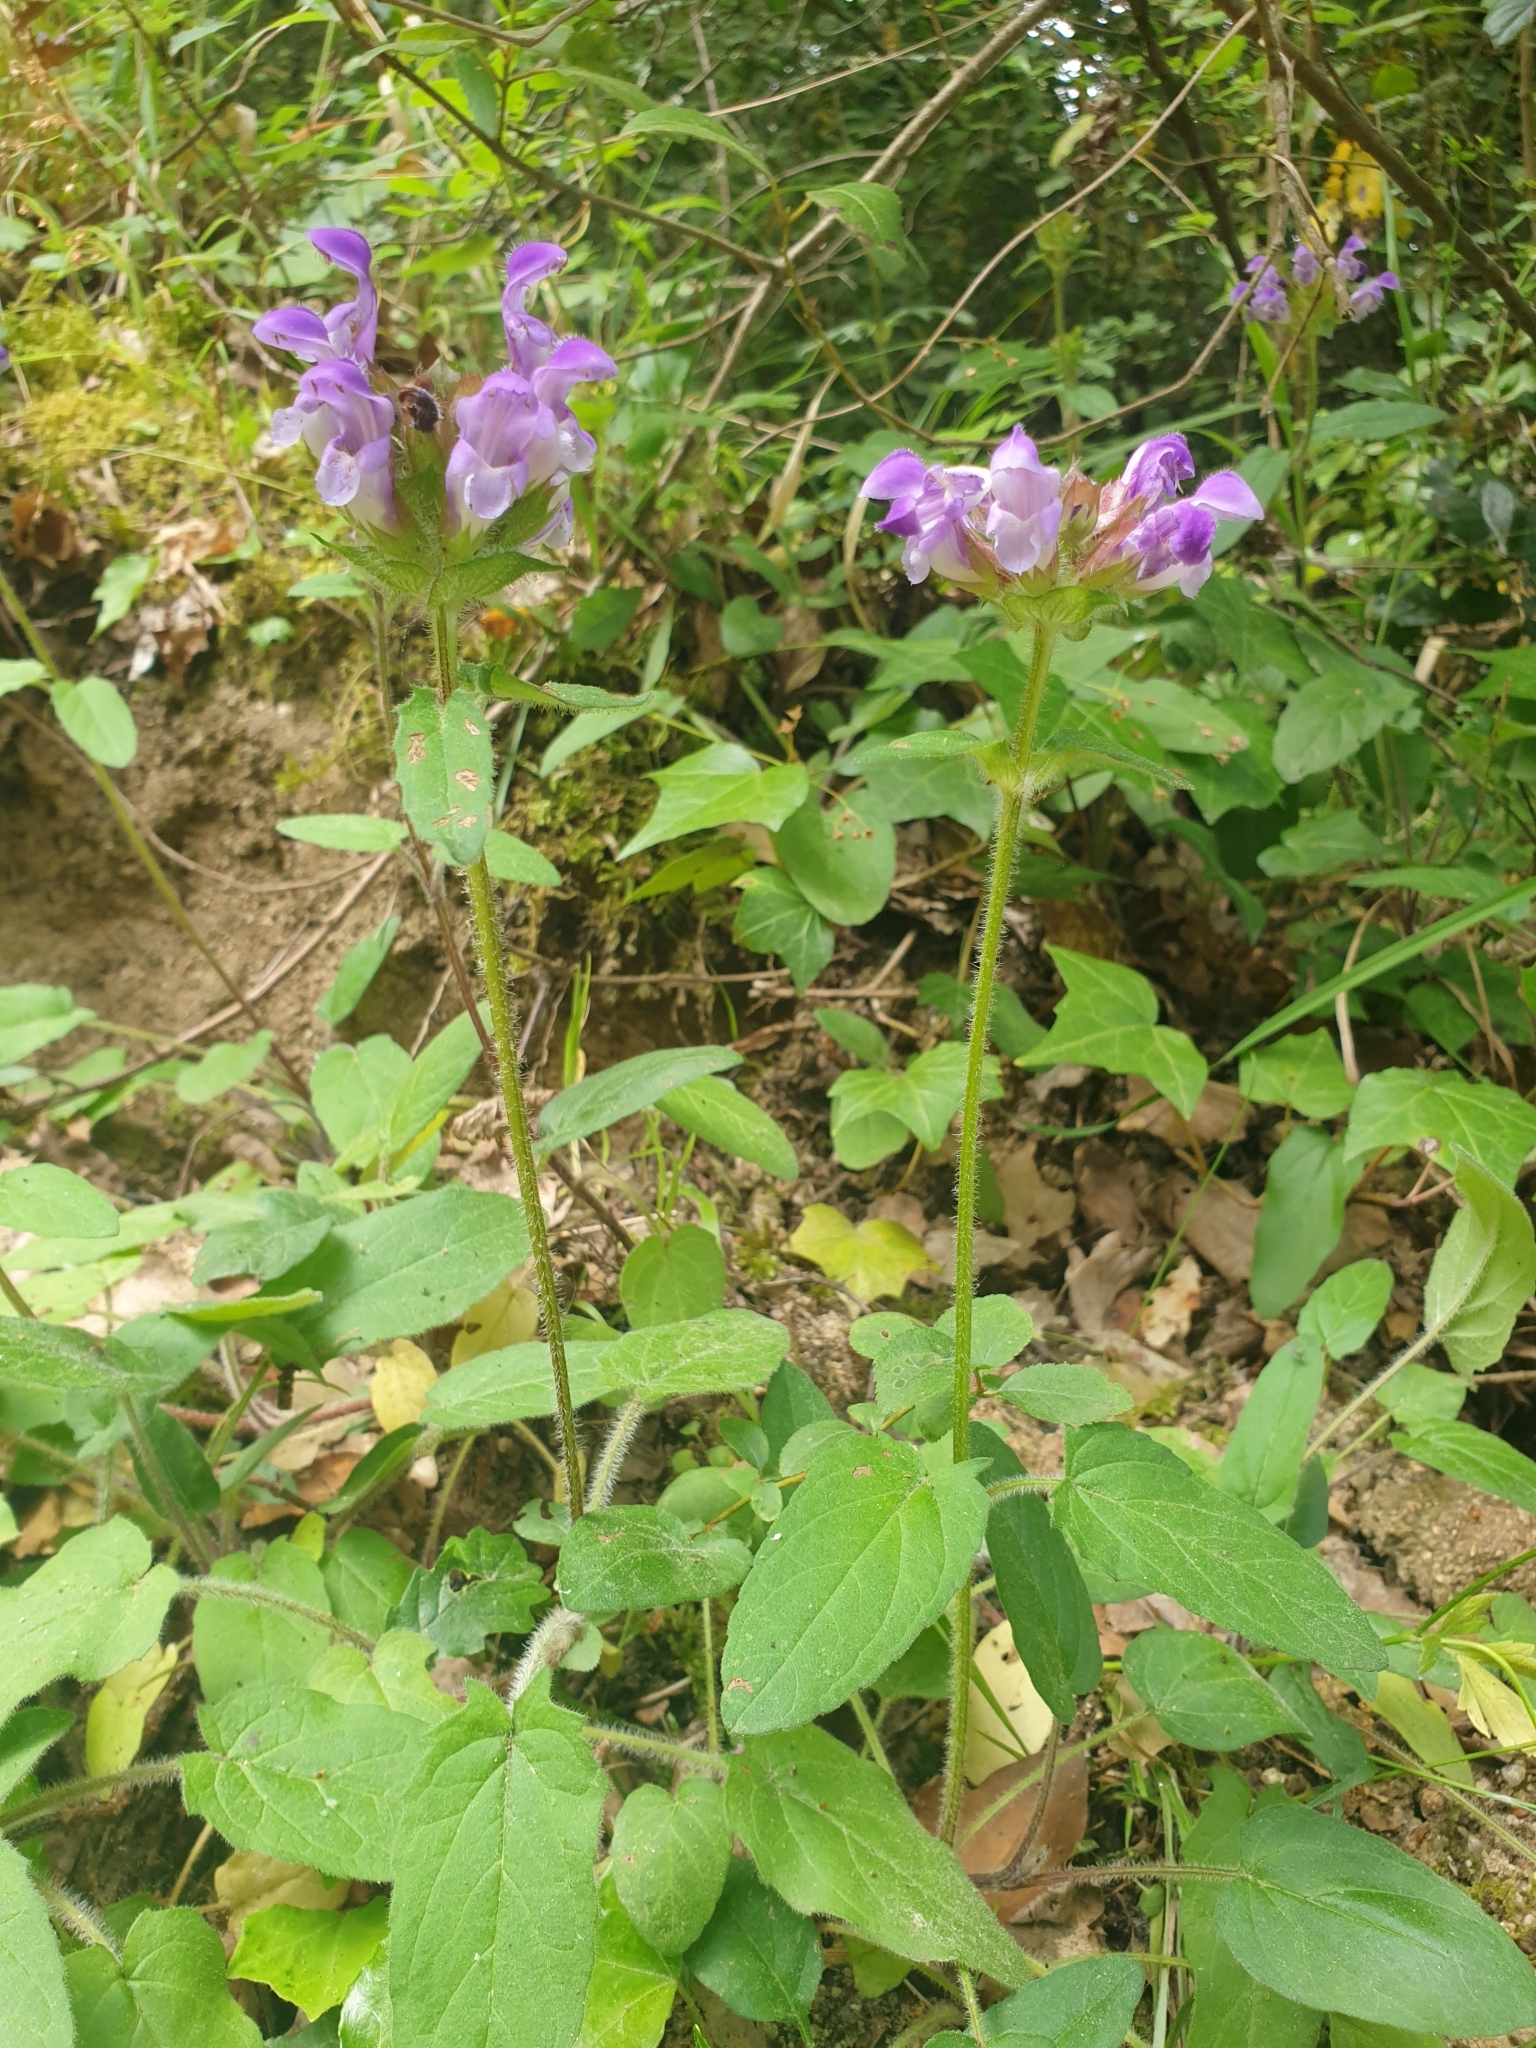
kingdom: Plantae
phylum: Tracheophyta
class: Magnoliopsida
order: Lamiales
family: Lamiaceae
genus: Prunella
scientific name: Prunella grandiflora
